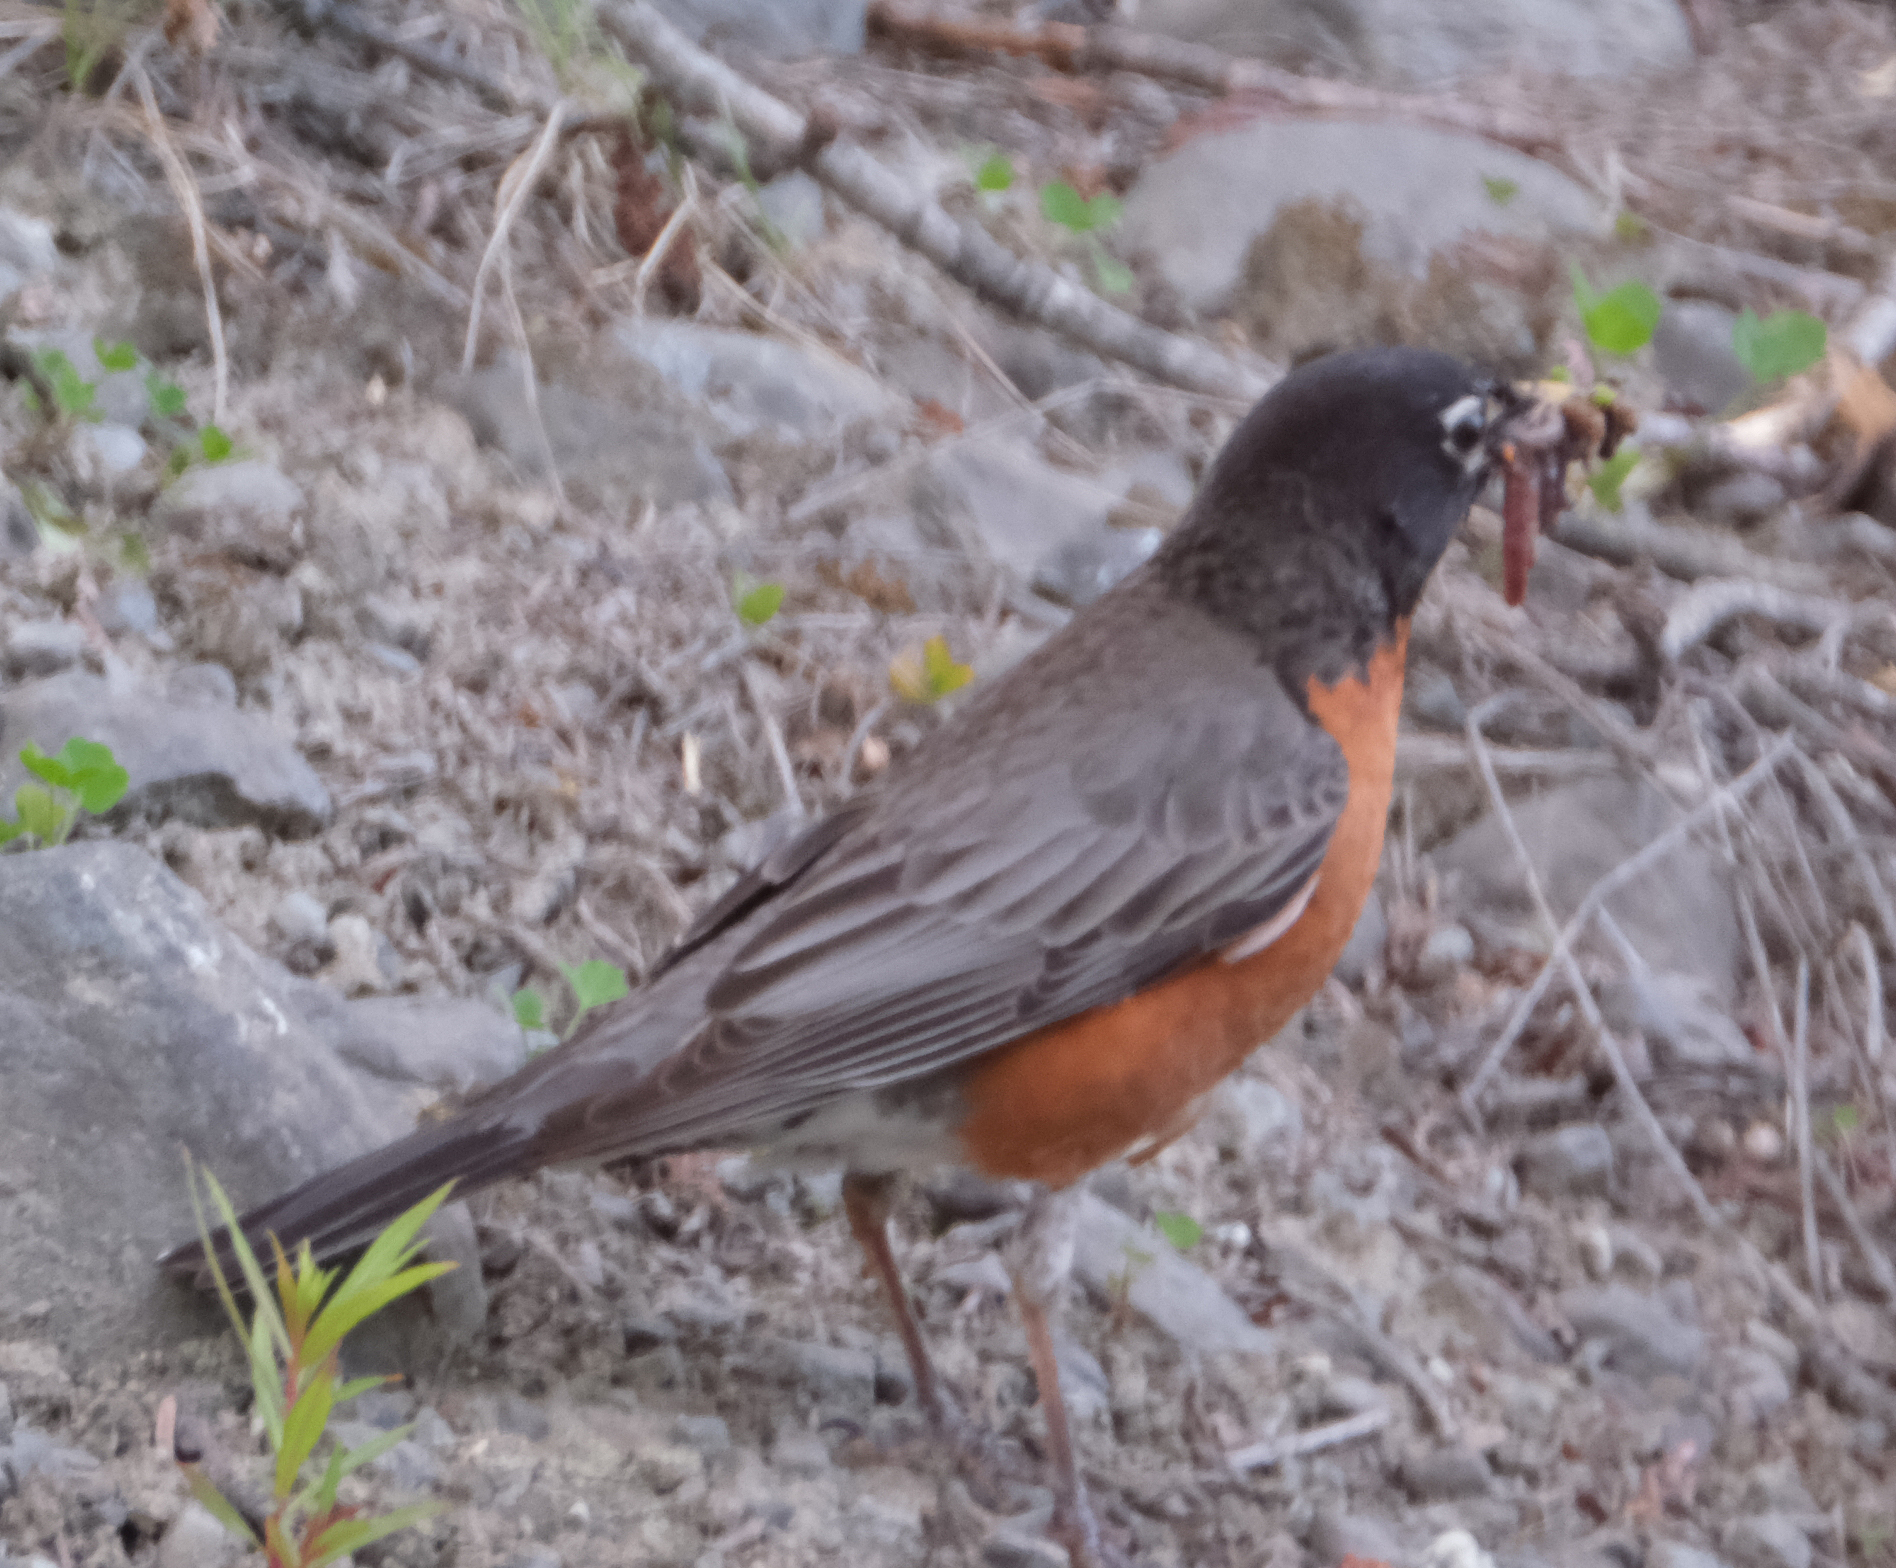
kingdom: Animalia
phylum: Chordata
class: Aves
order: Passeriformes
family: Turdidae
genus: Turdus
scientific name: Turdus migratorius
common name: American robin
